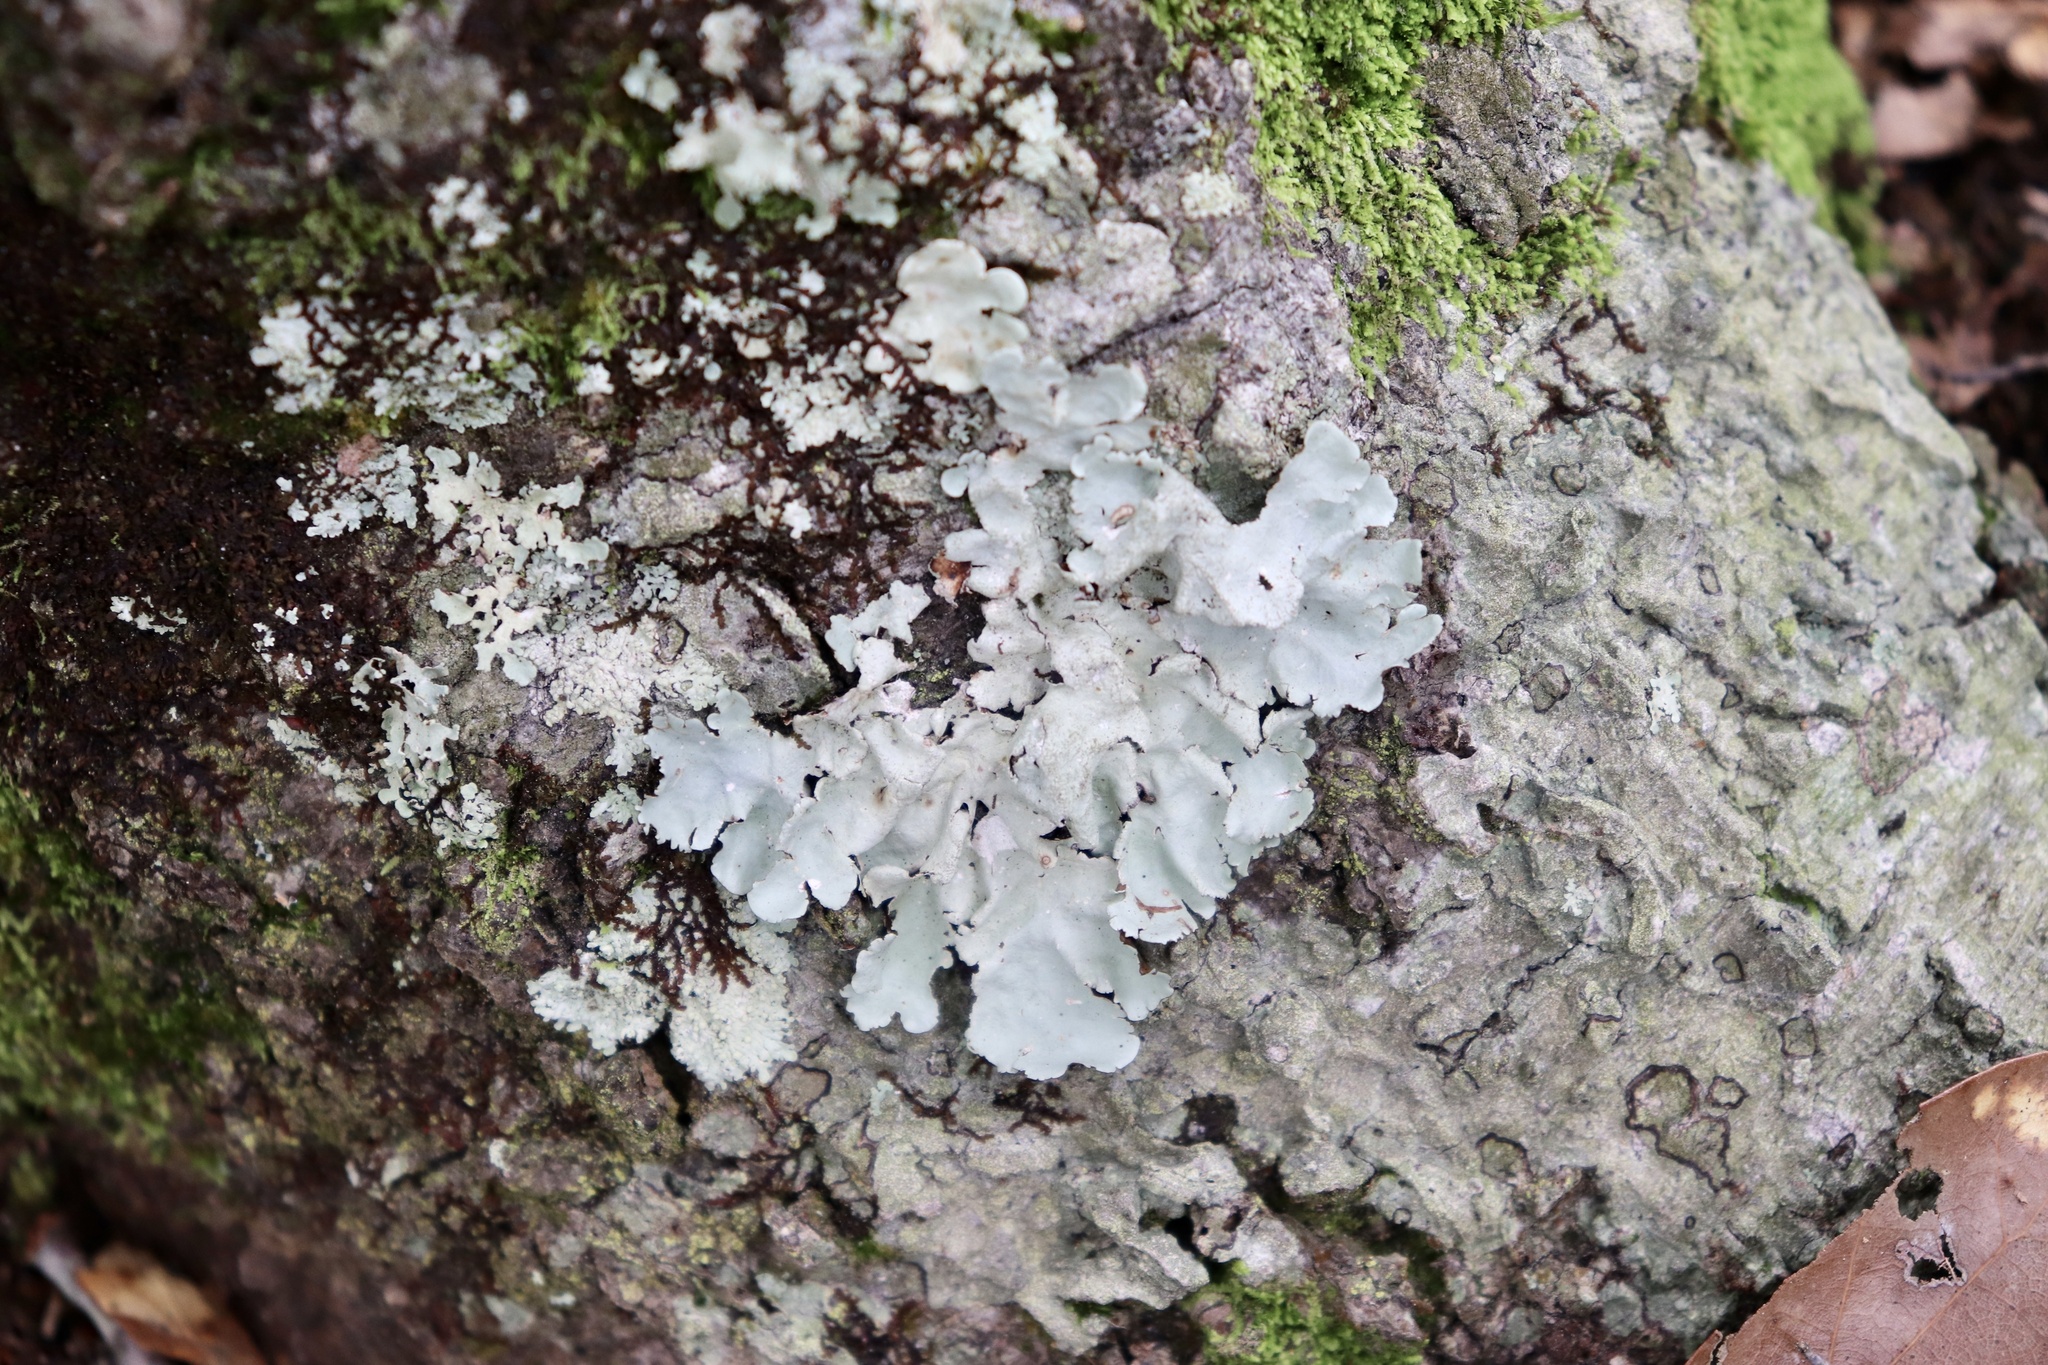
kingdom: Fungi
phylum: Ascomycota
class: Lecanoromycetes
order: Lecanorales
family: Parmeliaceae
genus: Parmotrema
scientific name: Parmotrema tinctorum
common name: Old gray ruffles
